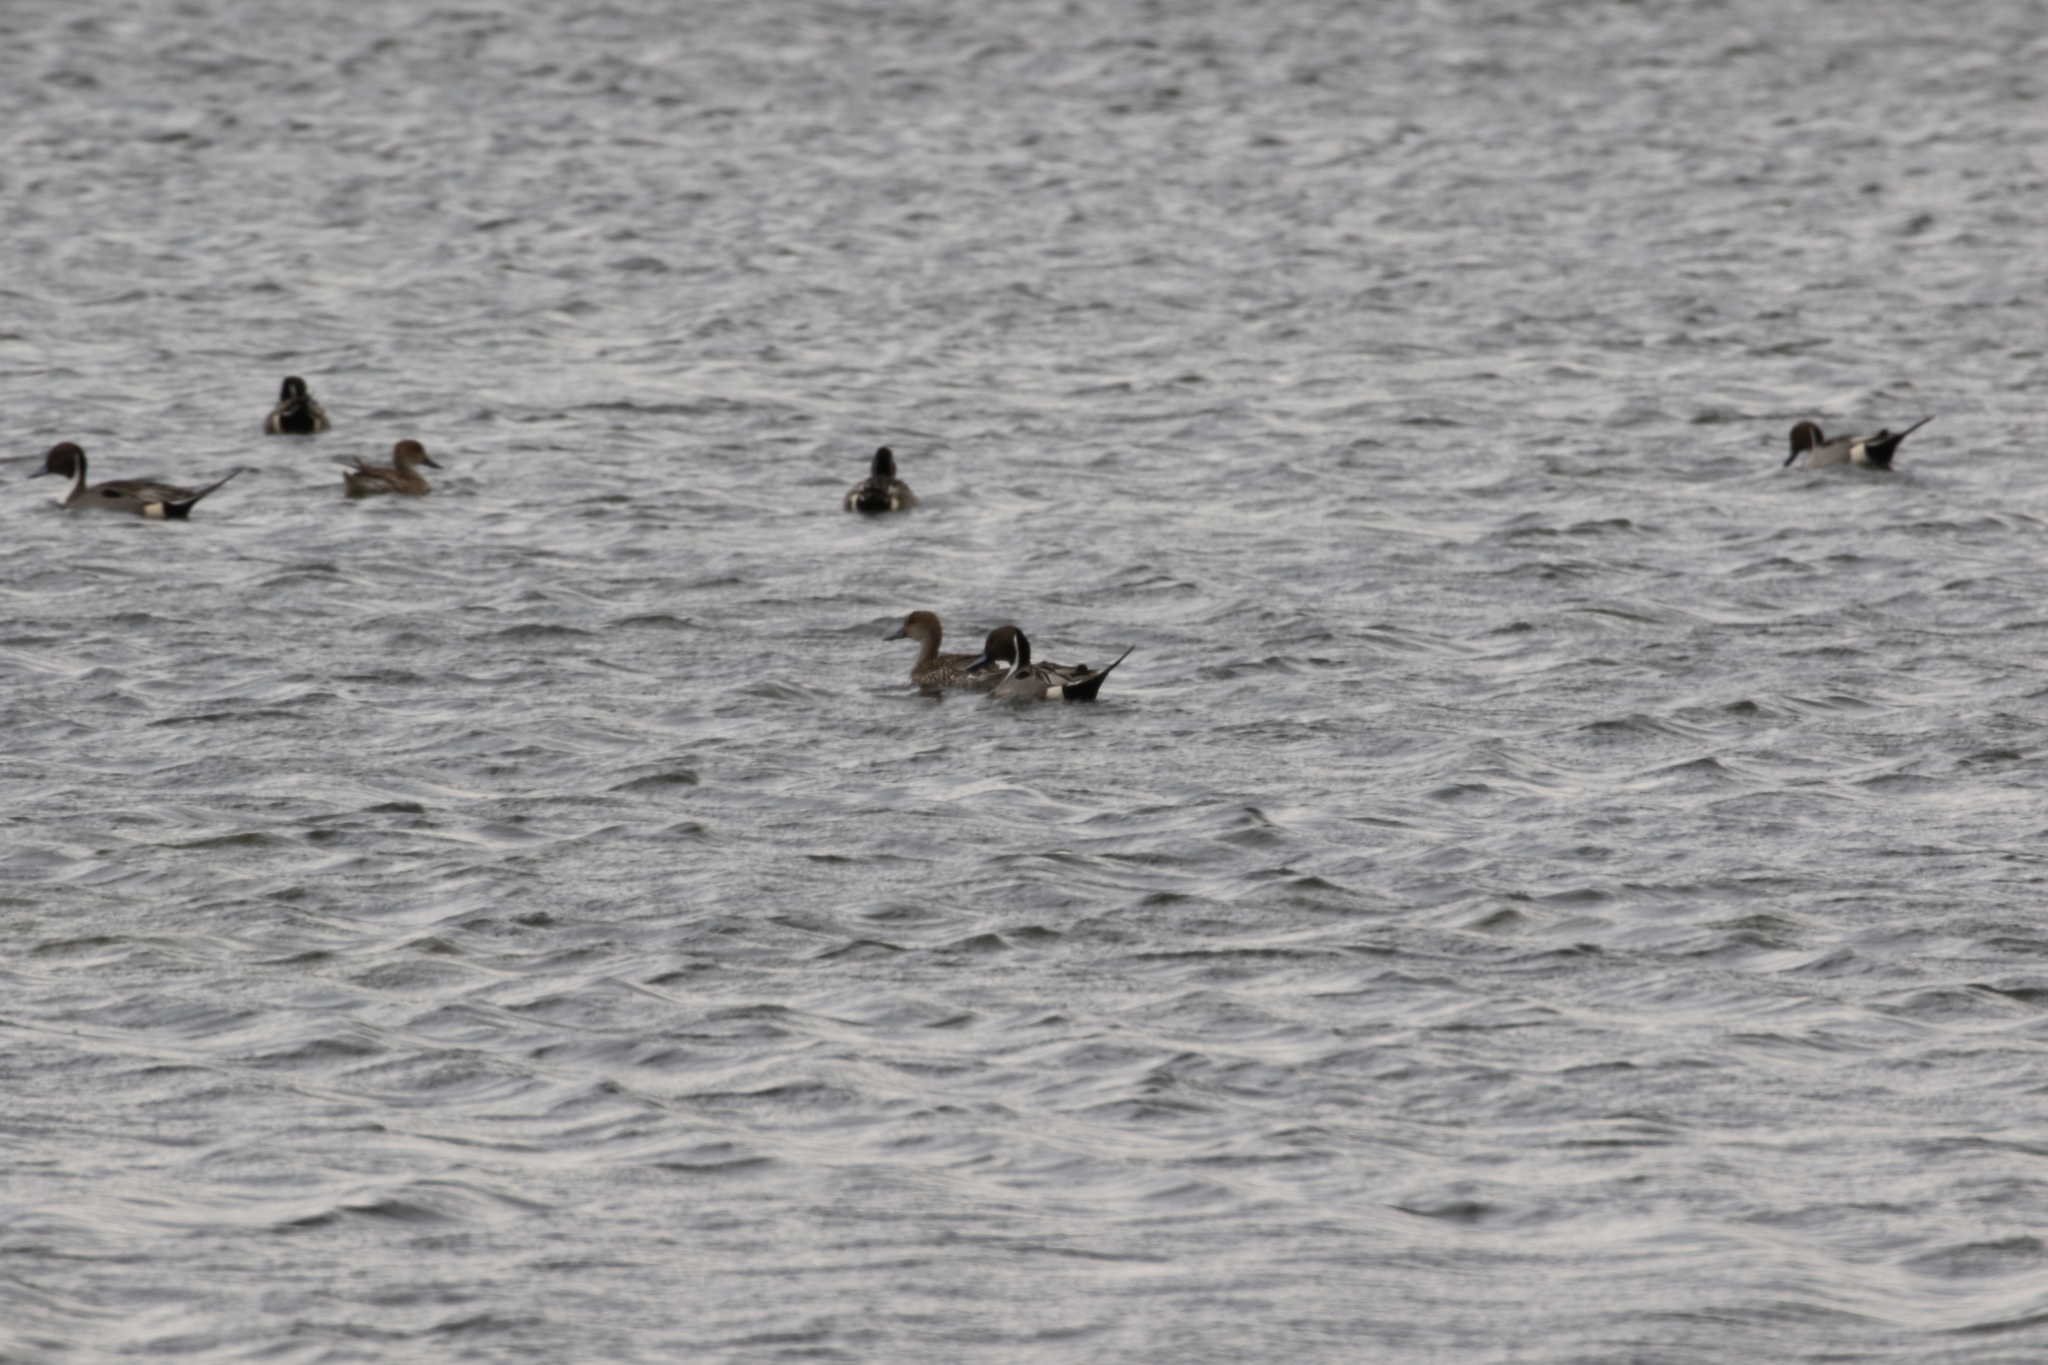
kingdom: Animalia
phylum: Chordata
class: Aves
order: Anseriformes
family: Anatidae
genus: Anas
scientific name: Anas acuta
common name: Northern pintail
